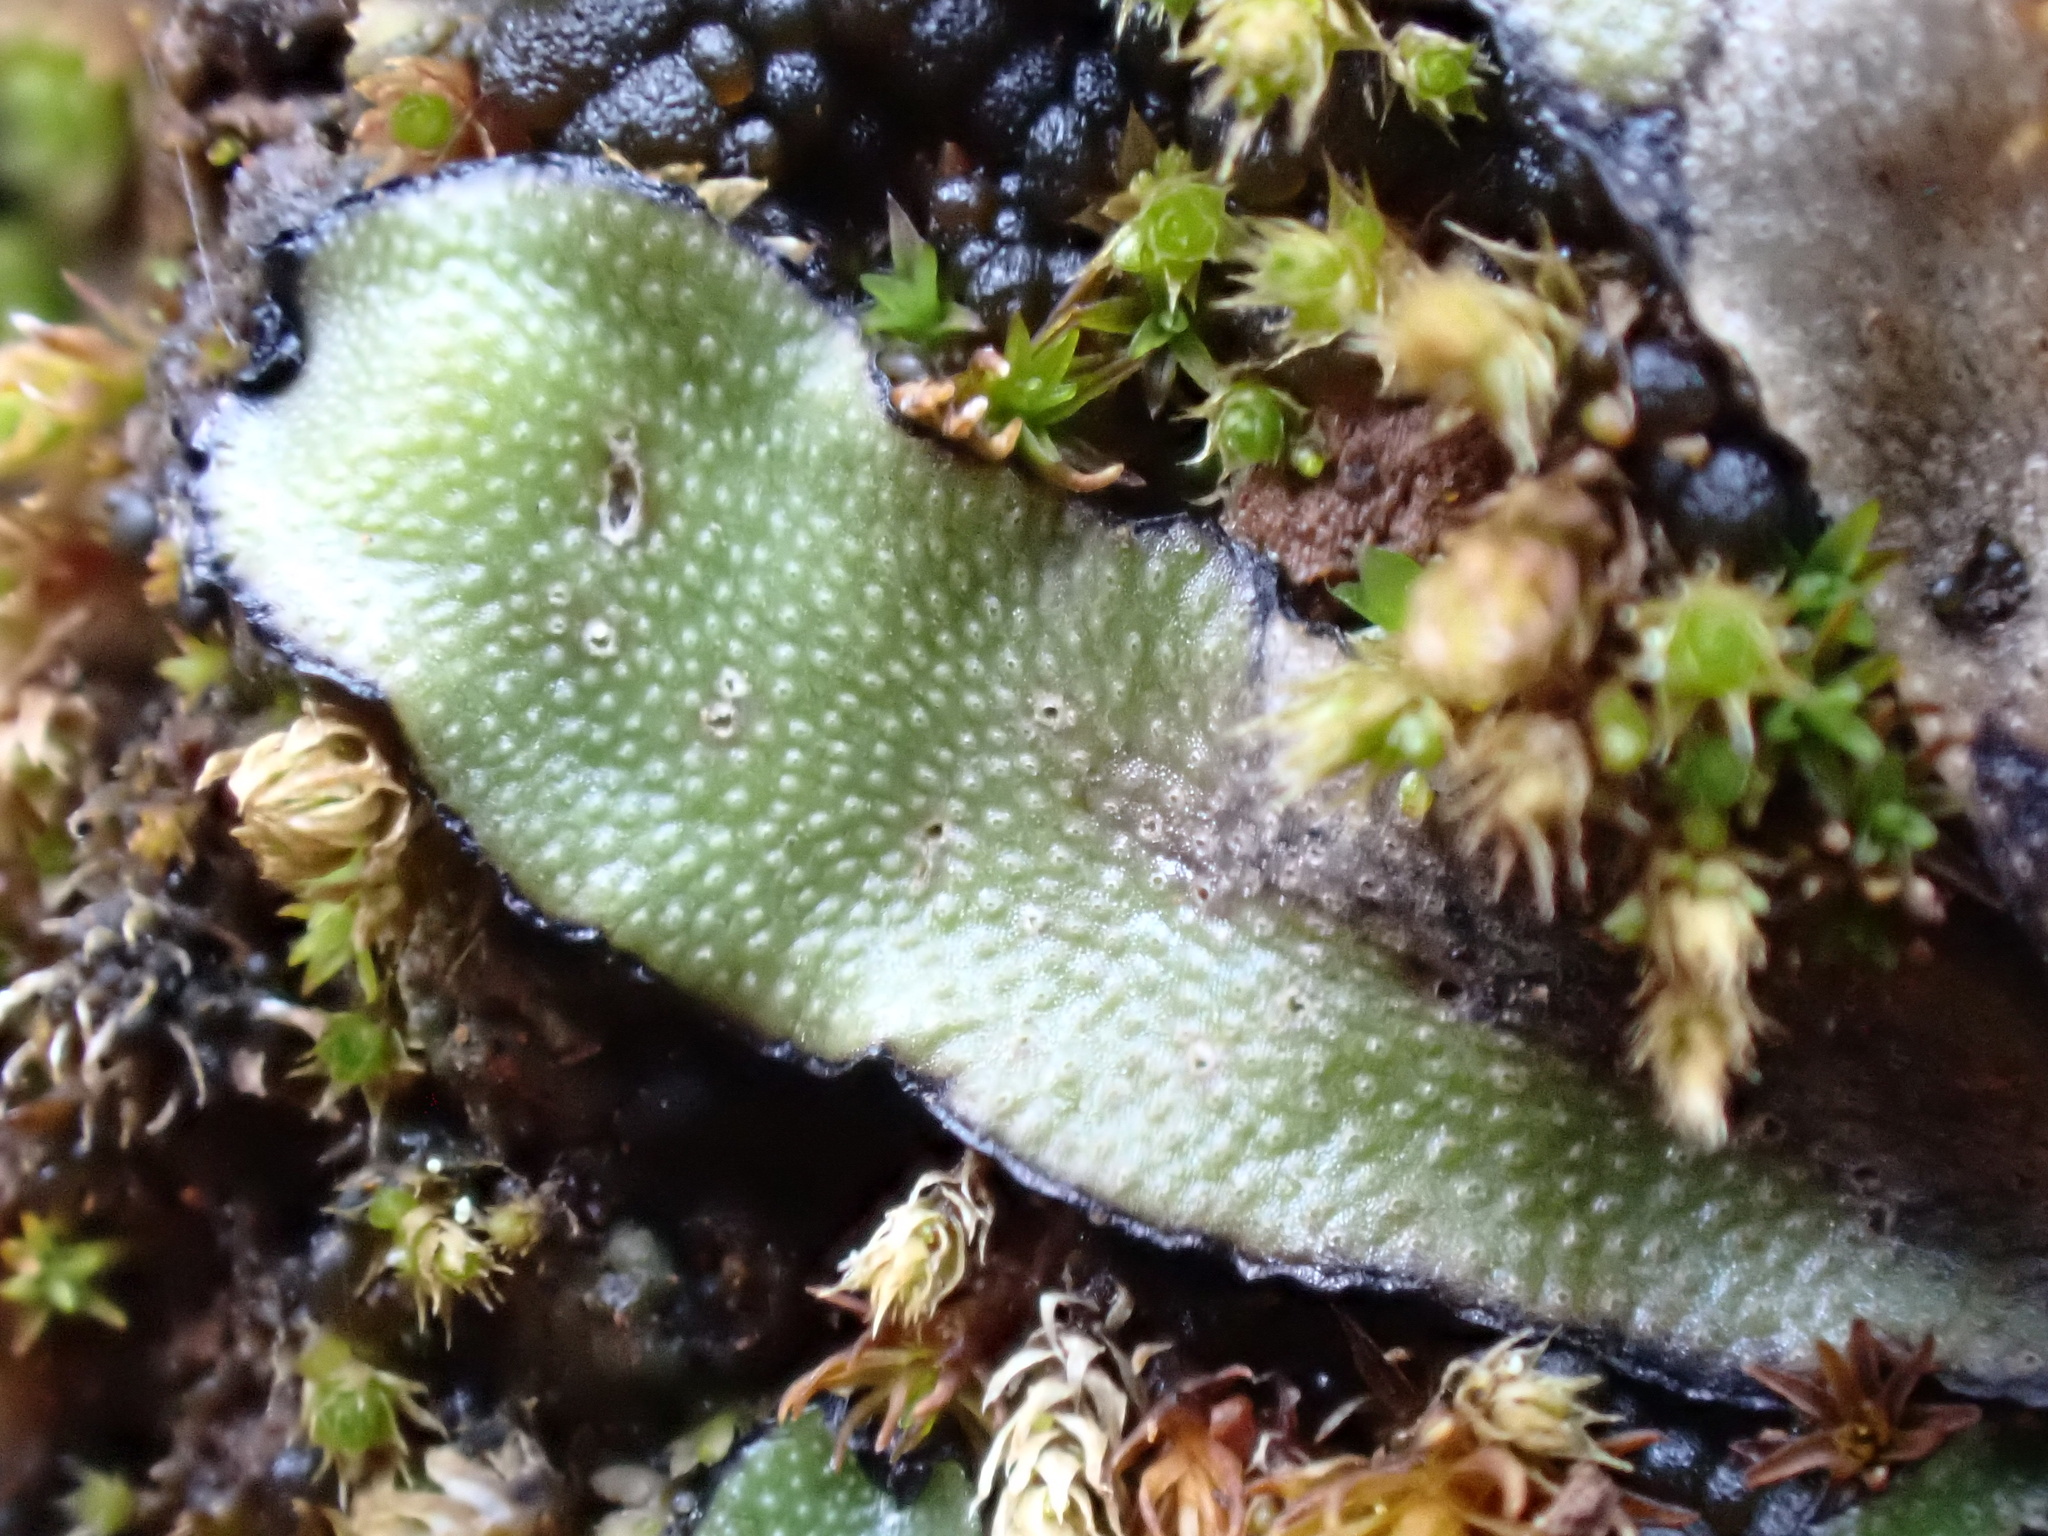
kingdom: Plantae
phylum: Marchantiophyta
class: Marchantiopsida
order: Marchantiales
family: Targioniaceae
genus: Targionia
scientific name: Targionia hypophylla
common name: Orobus-seed liverwort
